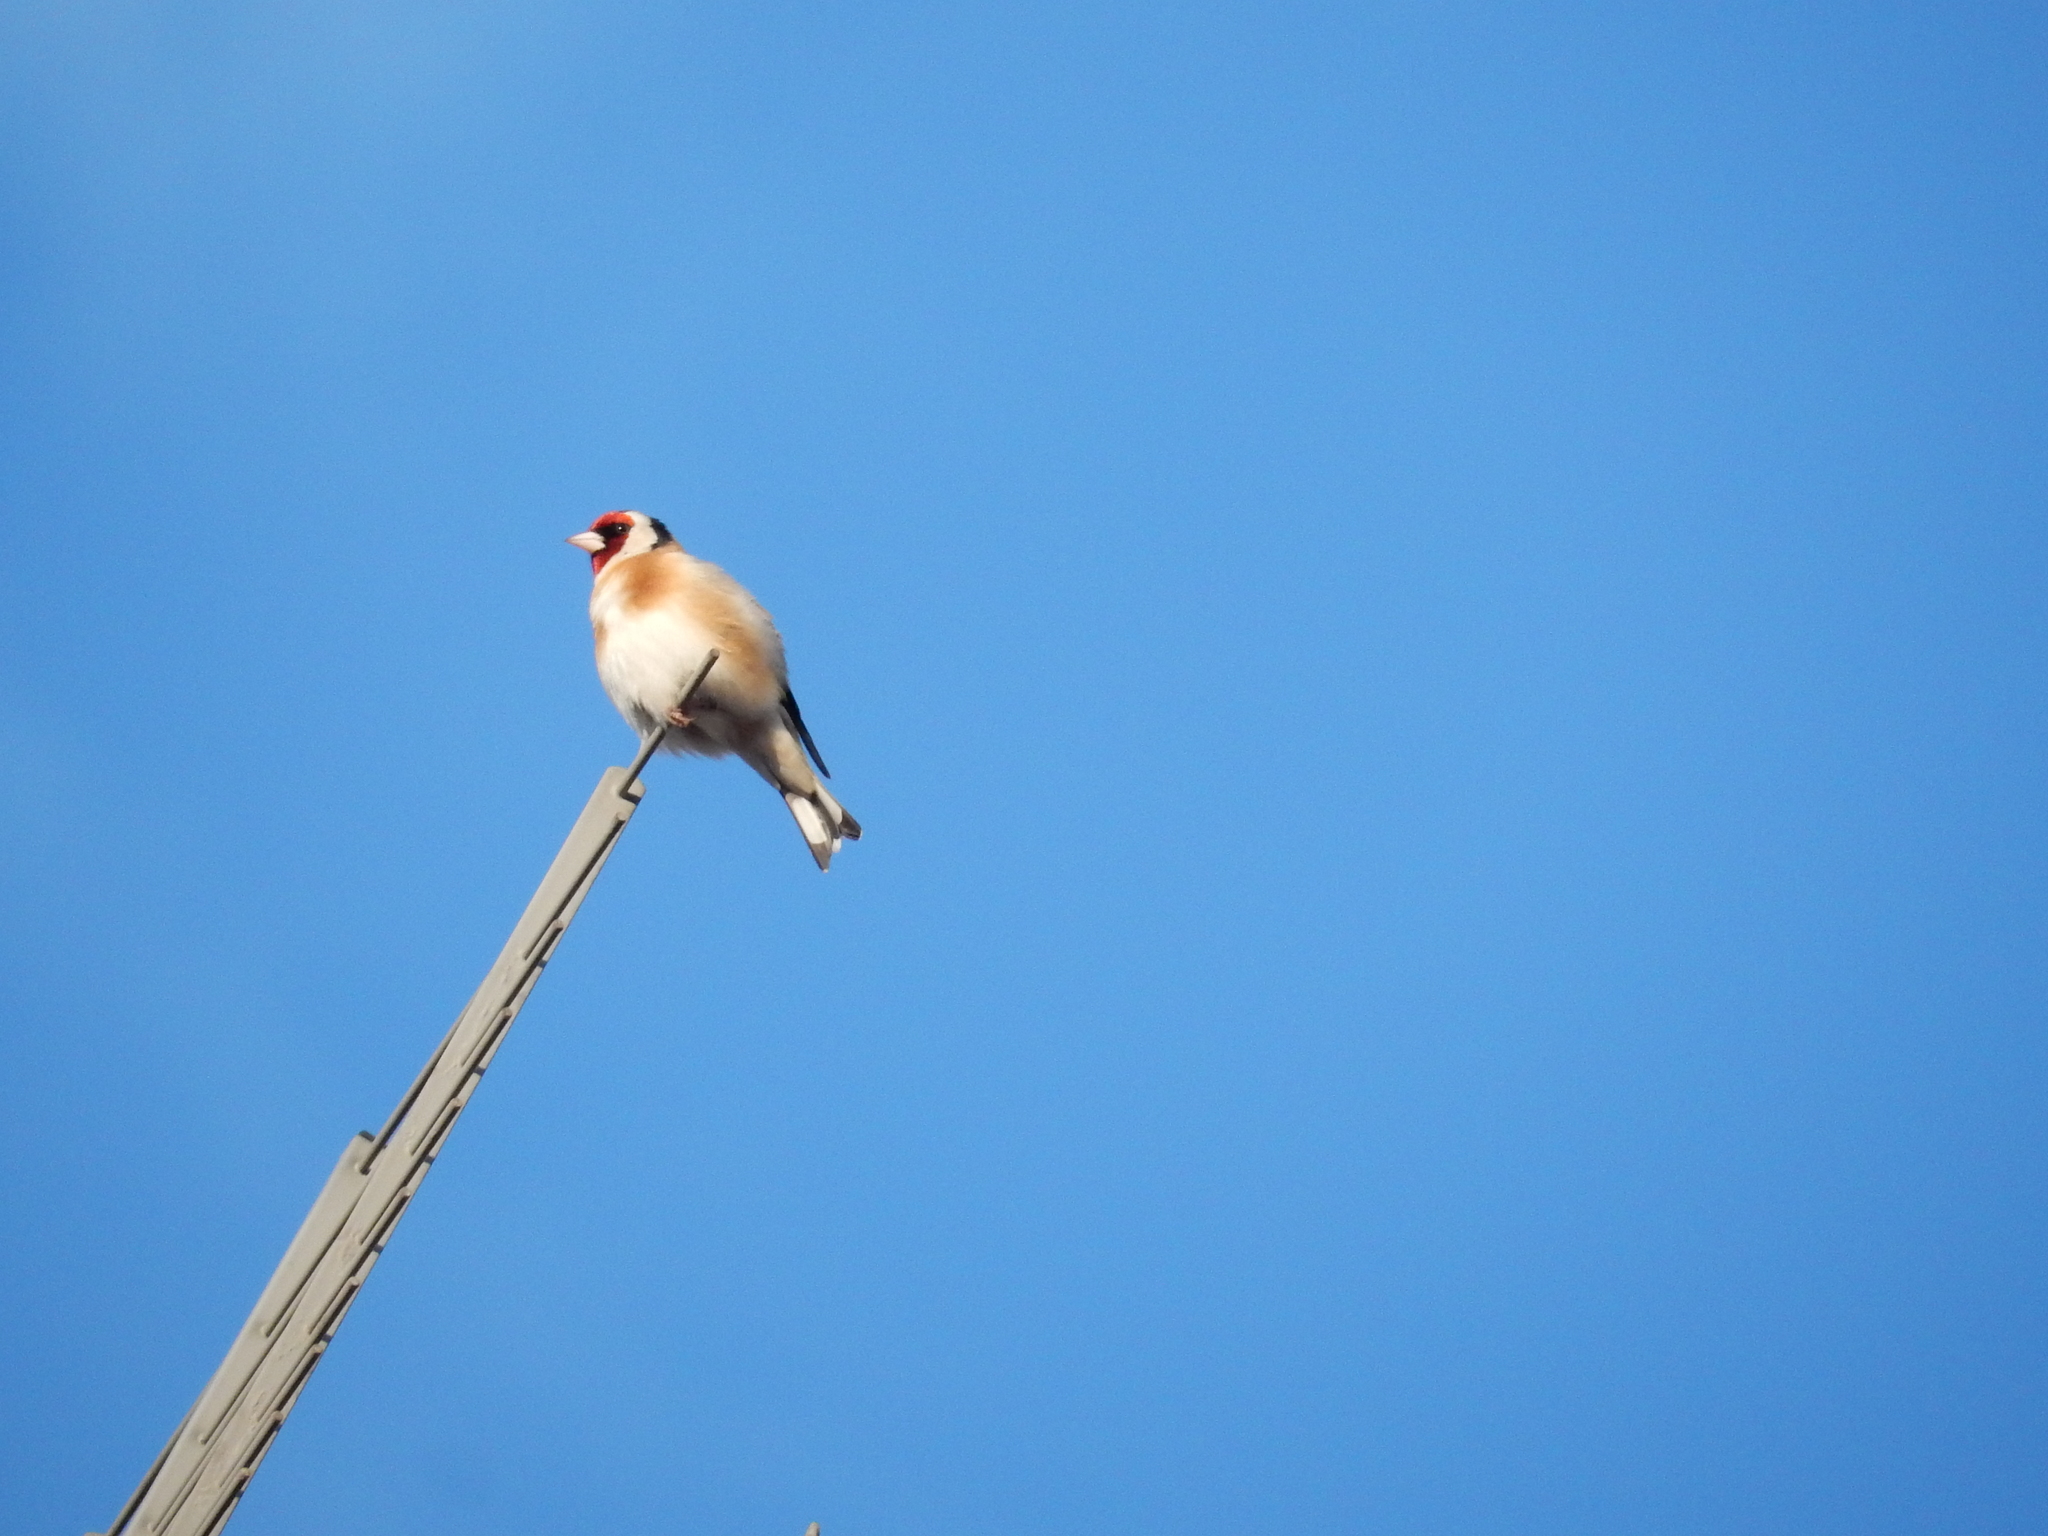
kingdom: Animalia
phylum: Chordata
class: Aves
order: Passeriformes
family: Fringillidae
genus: Carduelis
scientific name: Carduelis carduelis
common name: European goldfinch
